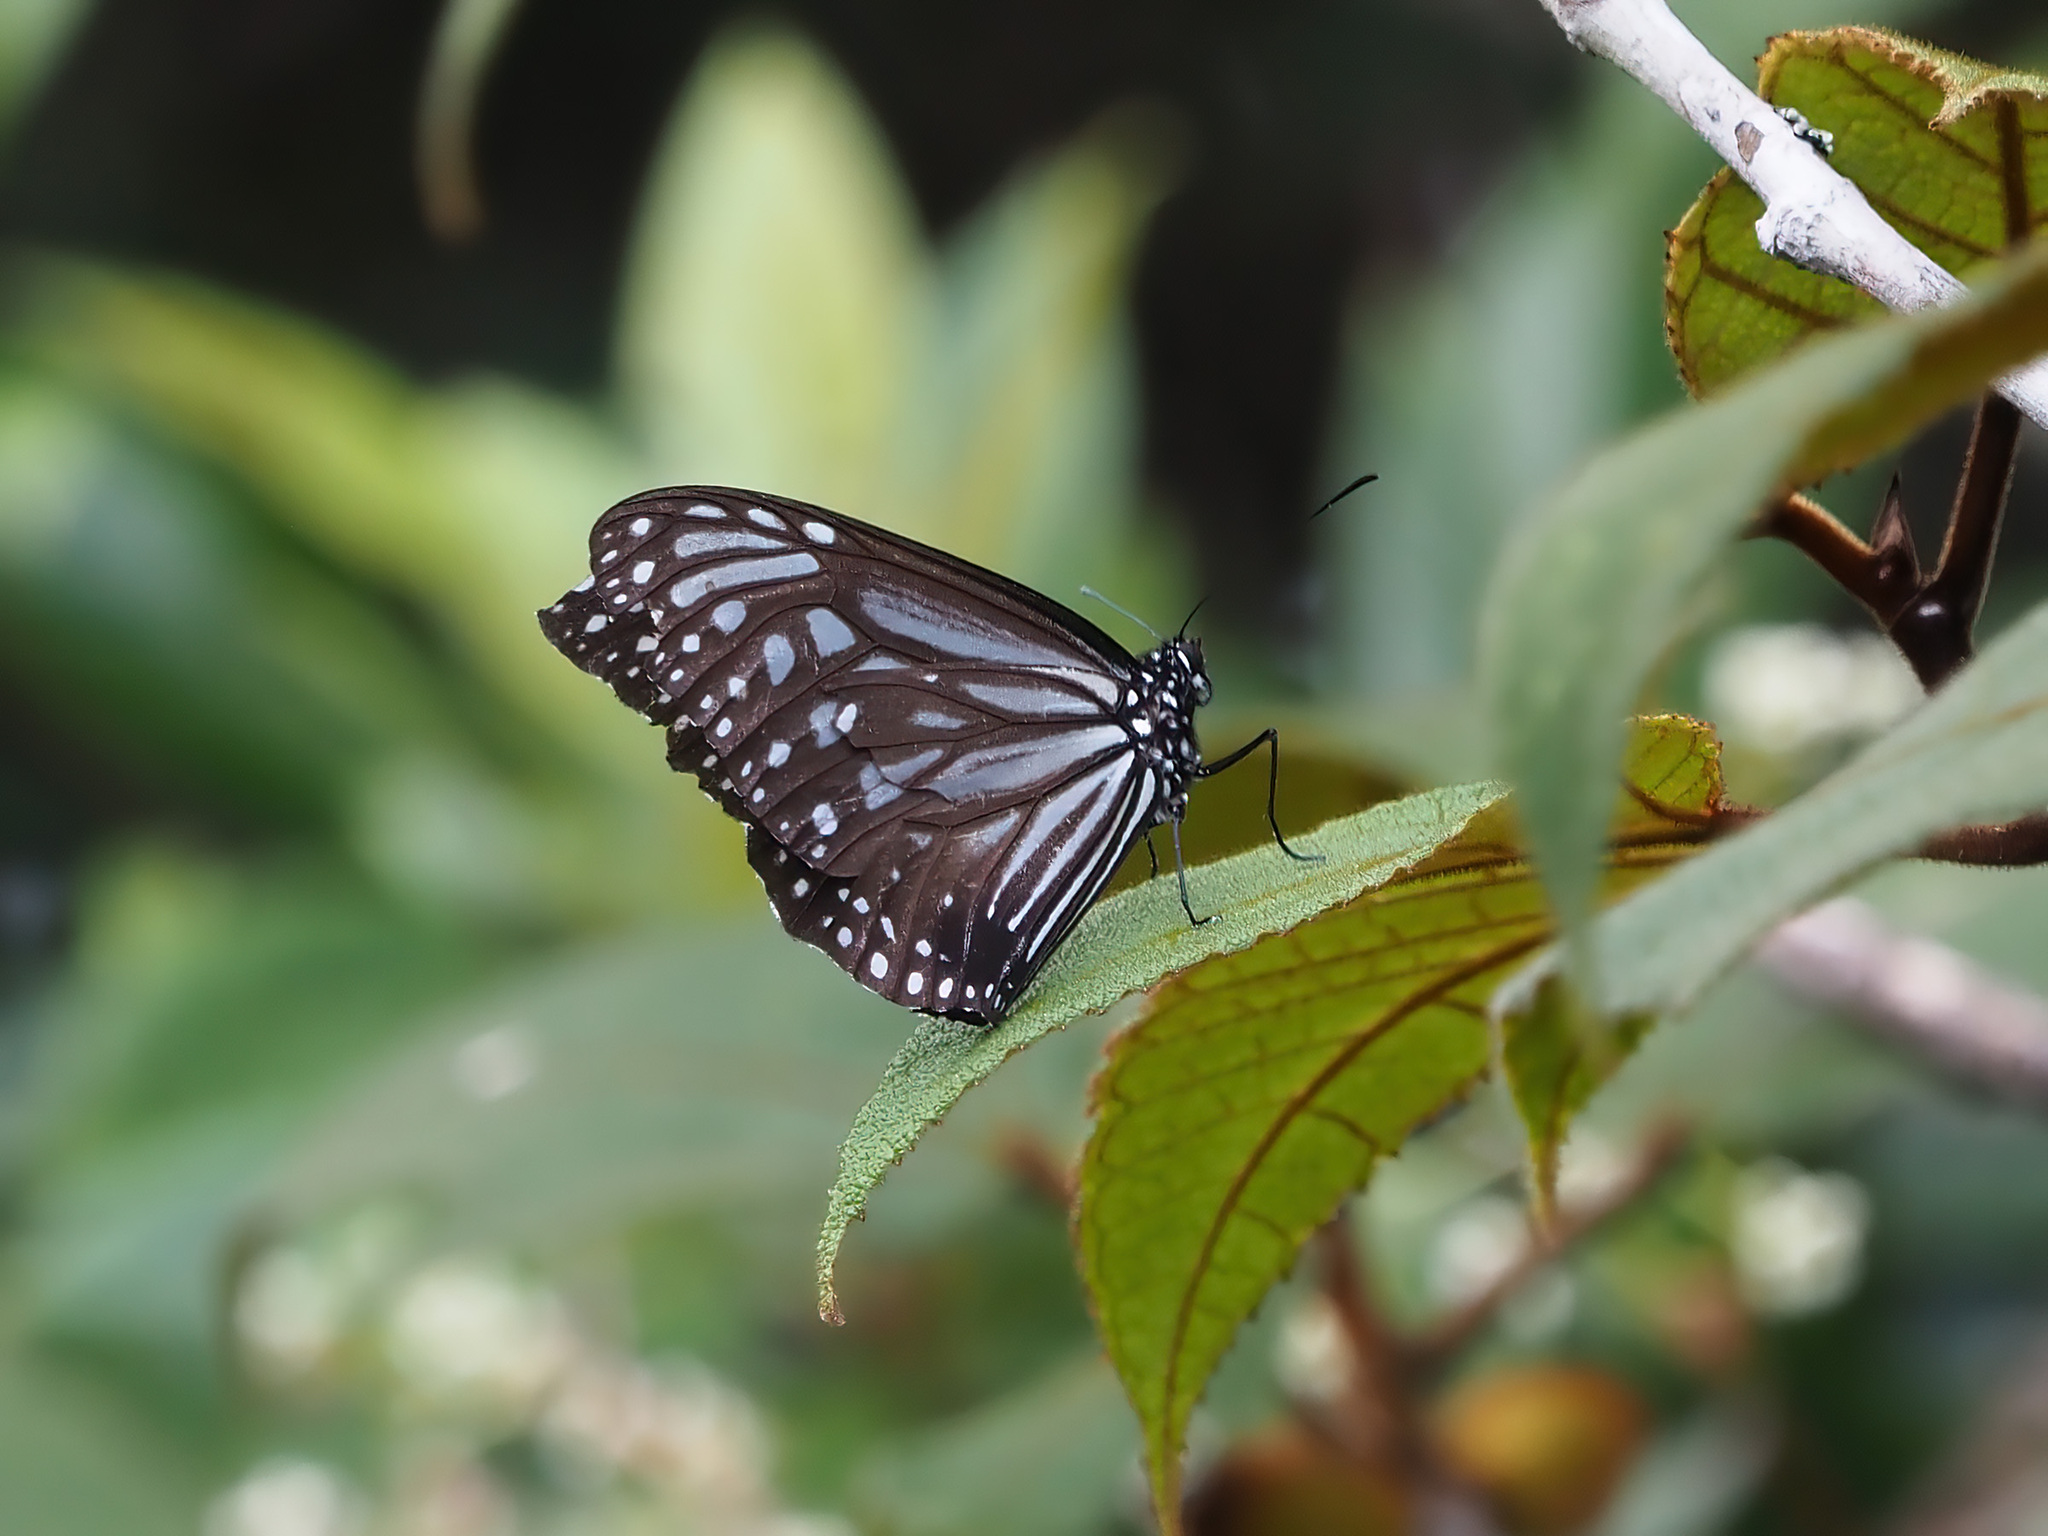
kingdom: Animalia
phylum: Arthropoda
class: Insecta
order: Lepidoptera
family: Nymphalidae
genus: Parantica
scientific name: Parantica crowleyi
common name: Crowley's tiger
